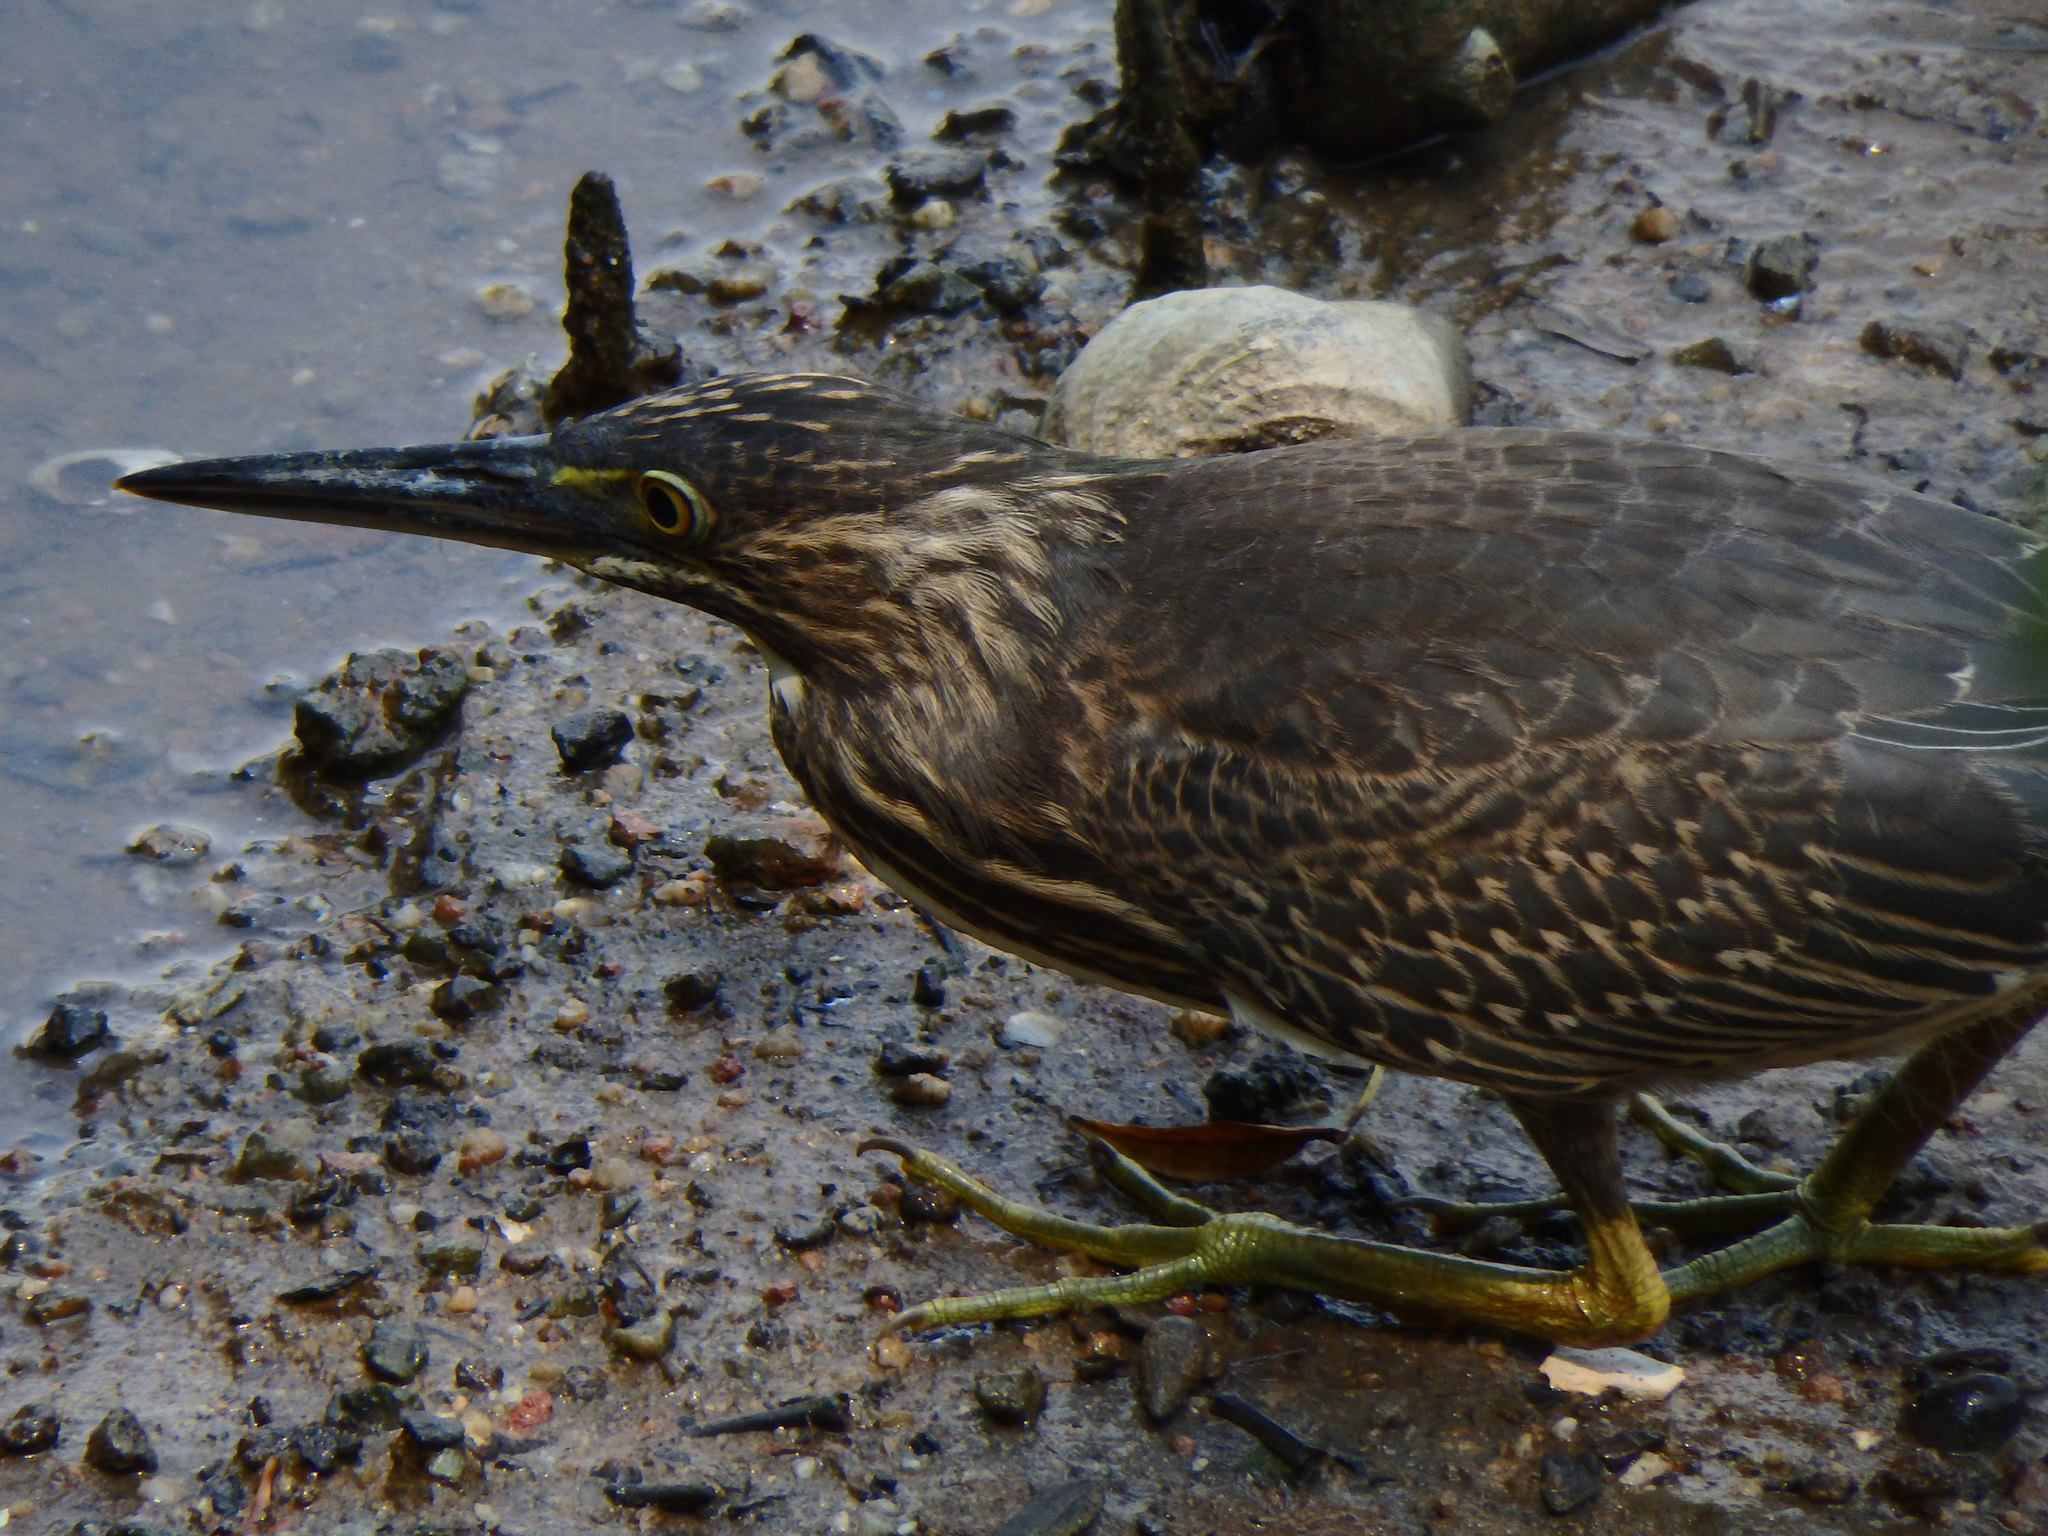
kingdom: Animalia
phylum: Chordata
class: Aves
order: Pelecaniformes
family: Ardeidae
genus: Butorides
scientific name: Butorides striata
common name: Striated heron
